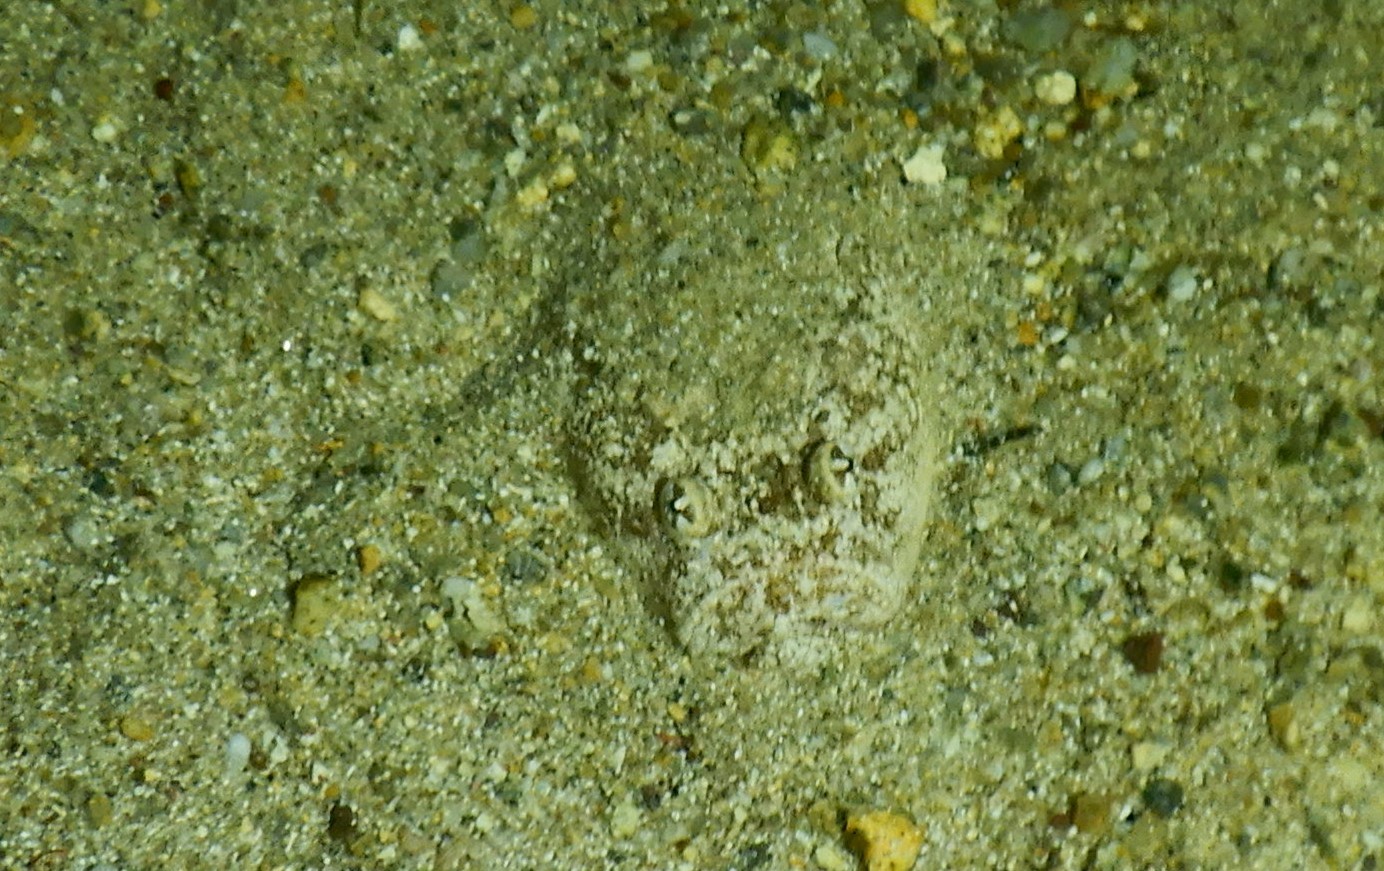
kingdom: Animalia
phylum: Chordata
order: Perciformes
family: Uranoscopidae
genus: Uranoscopus
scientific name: Uranoscopus scaber
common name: Stargazer
